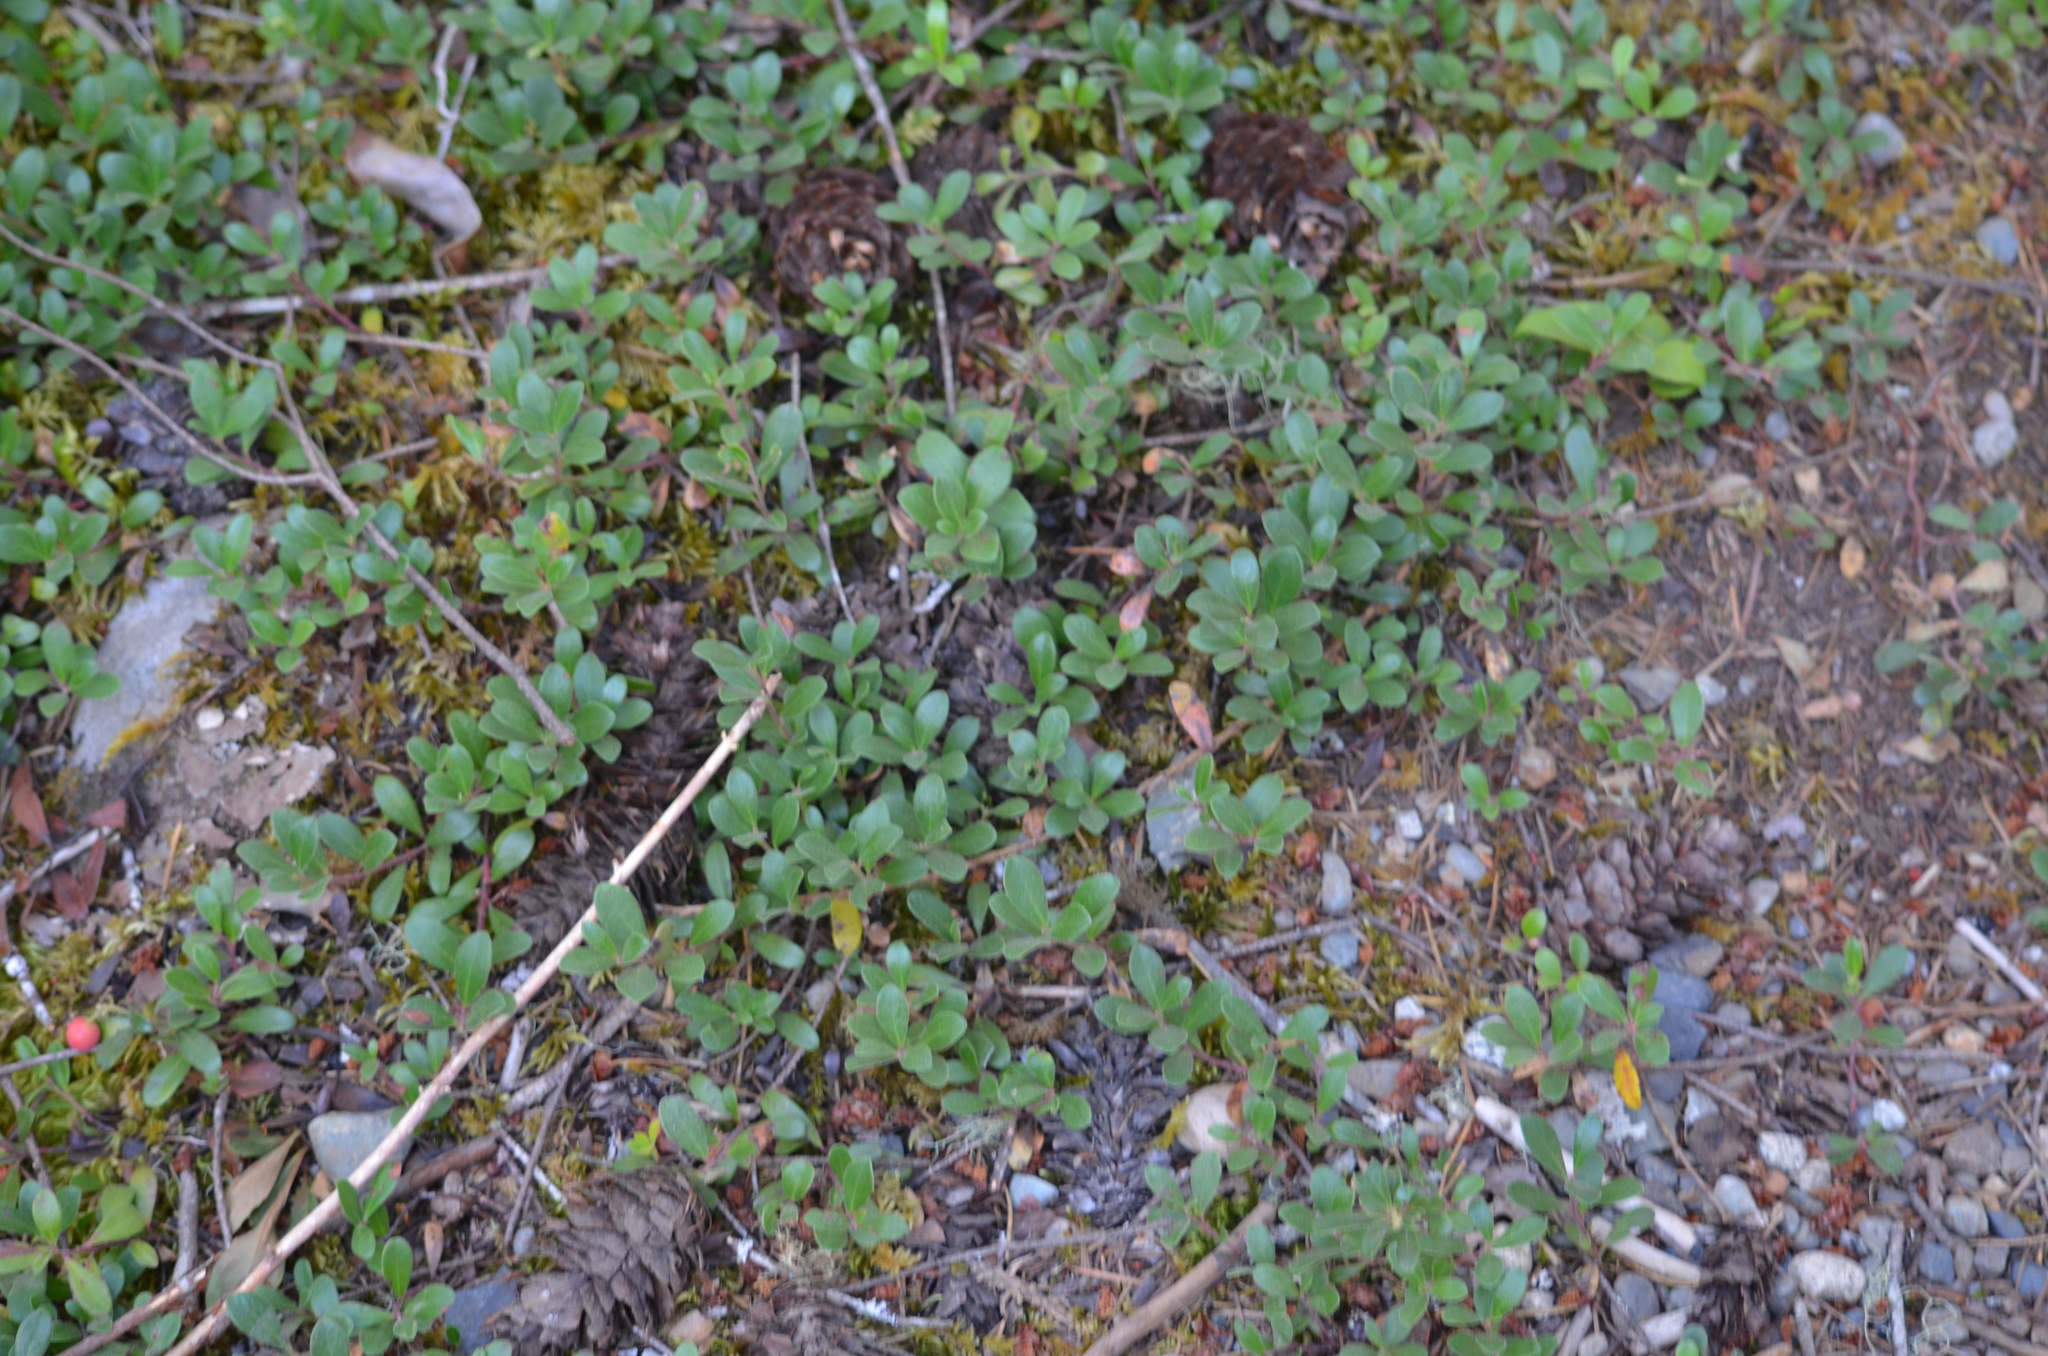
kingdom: Plantae
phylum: Tracheophyta
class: Magnoliopsida
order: Ericales
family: Ericaceae
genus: Arctostaphylos
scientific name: Arctostaphylos uva-ursi
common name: Bearberry
